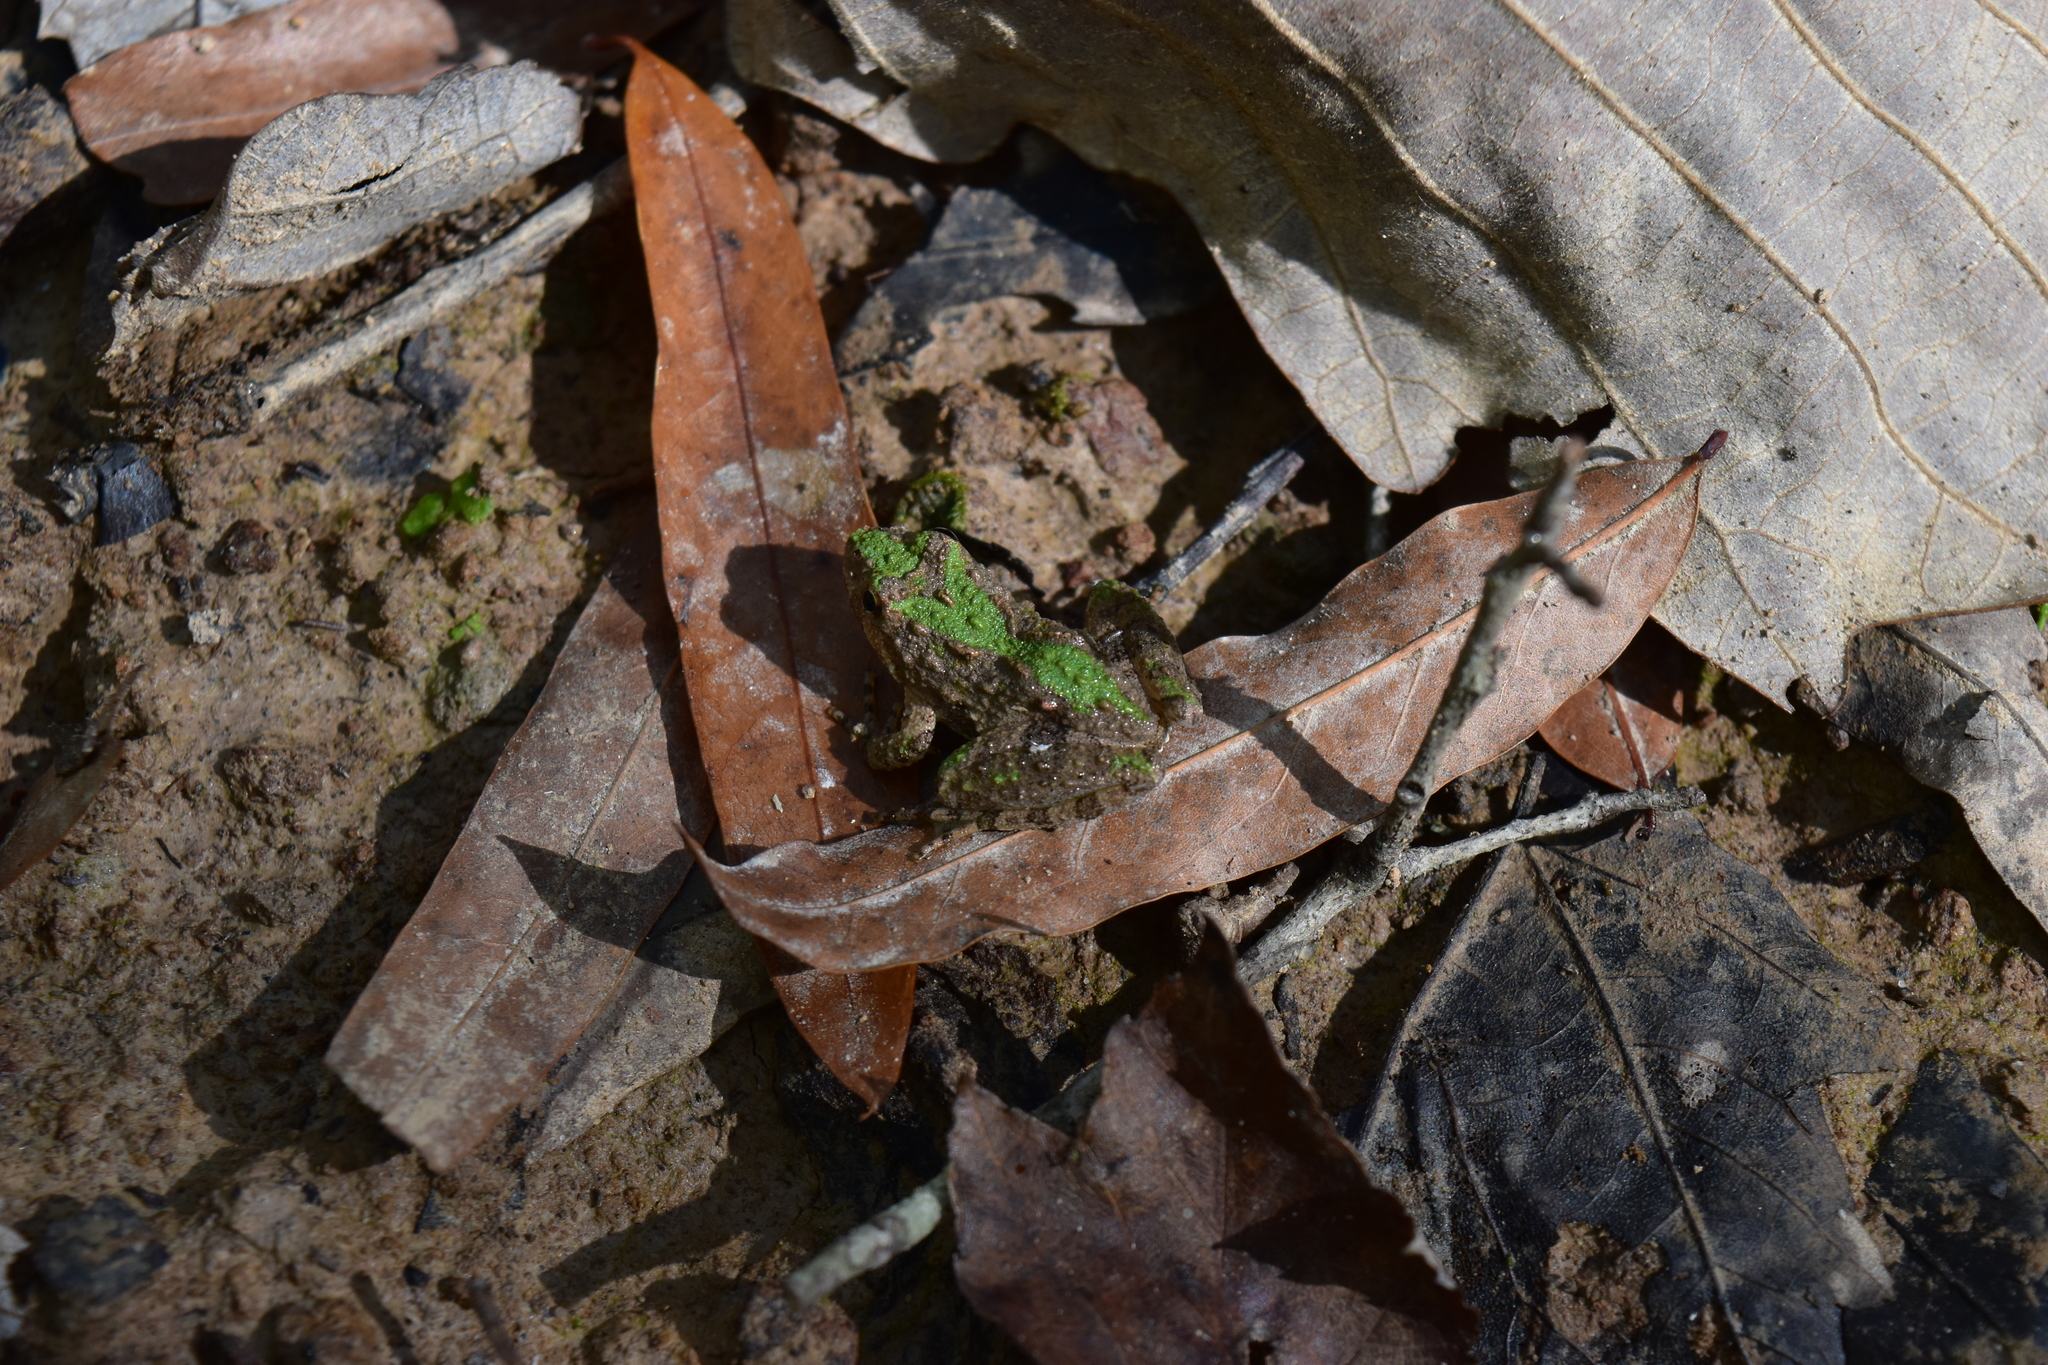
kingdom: Animalia
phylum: Chordata
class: Amphibia
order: Anura
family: Hylidae
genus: Acris
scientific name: Acris crepitans
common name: Northern cricket frog
